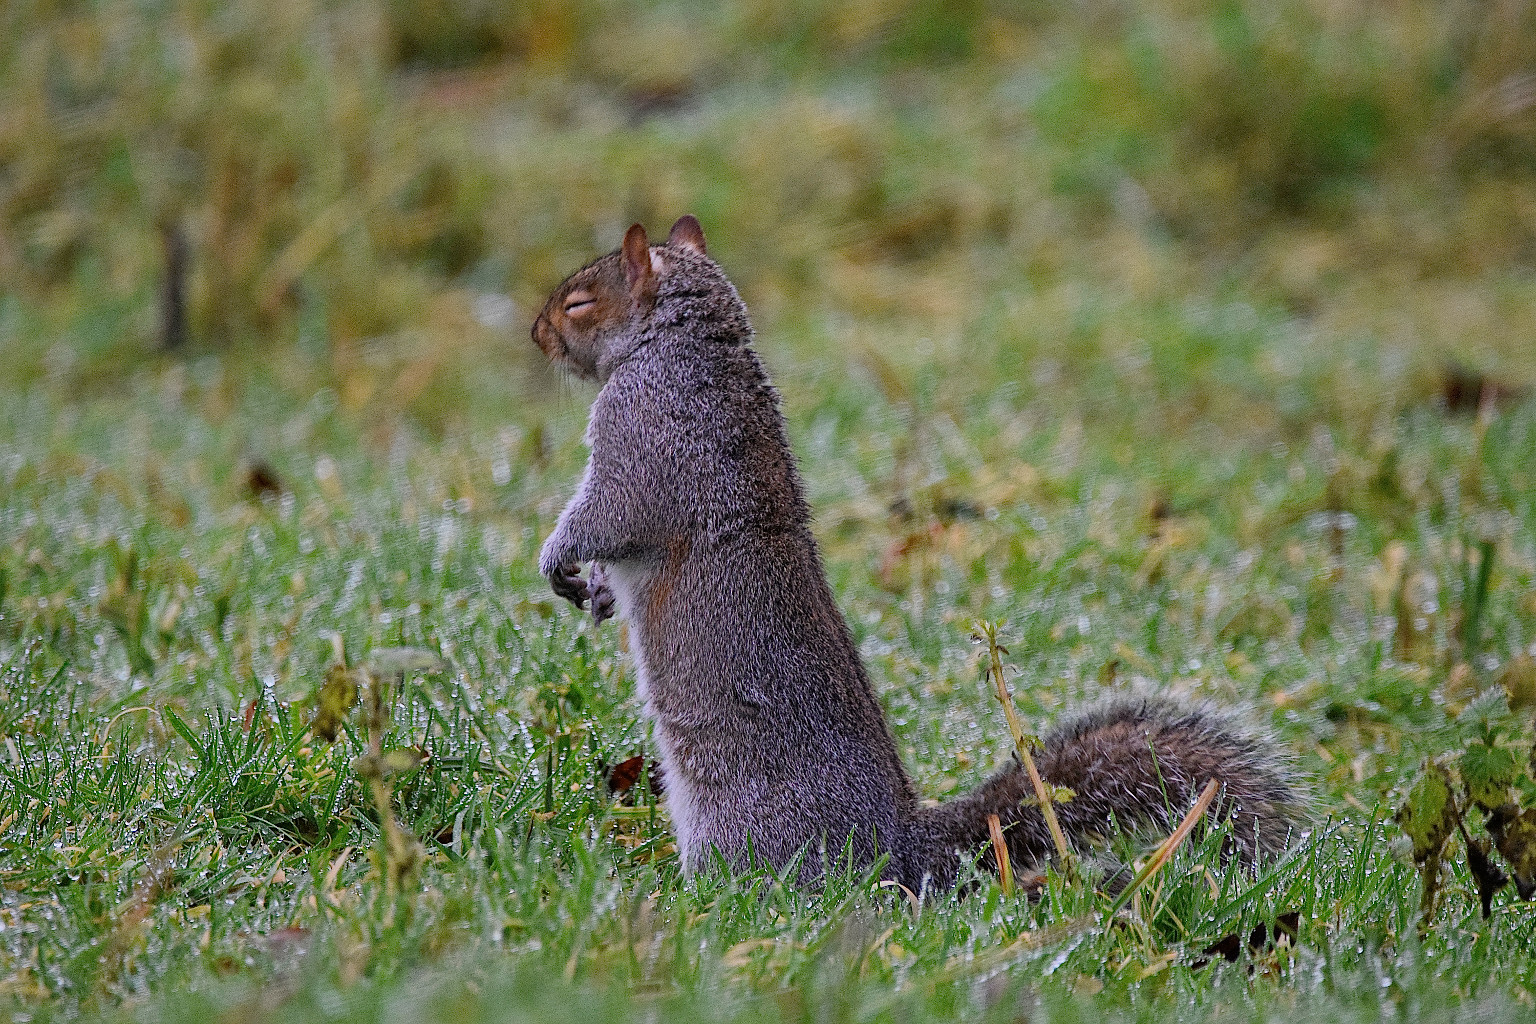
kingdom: Animalia
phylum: Chordata
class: Mammalia
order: Rodentia
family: Sciuridae
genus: Sciurus
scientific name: Sciurus carolinensis
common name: Eastern gray squirrel
